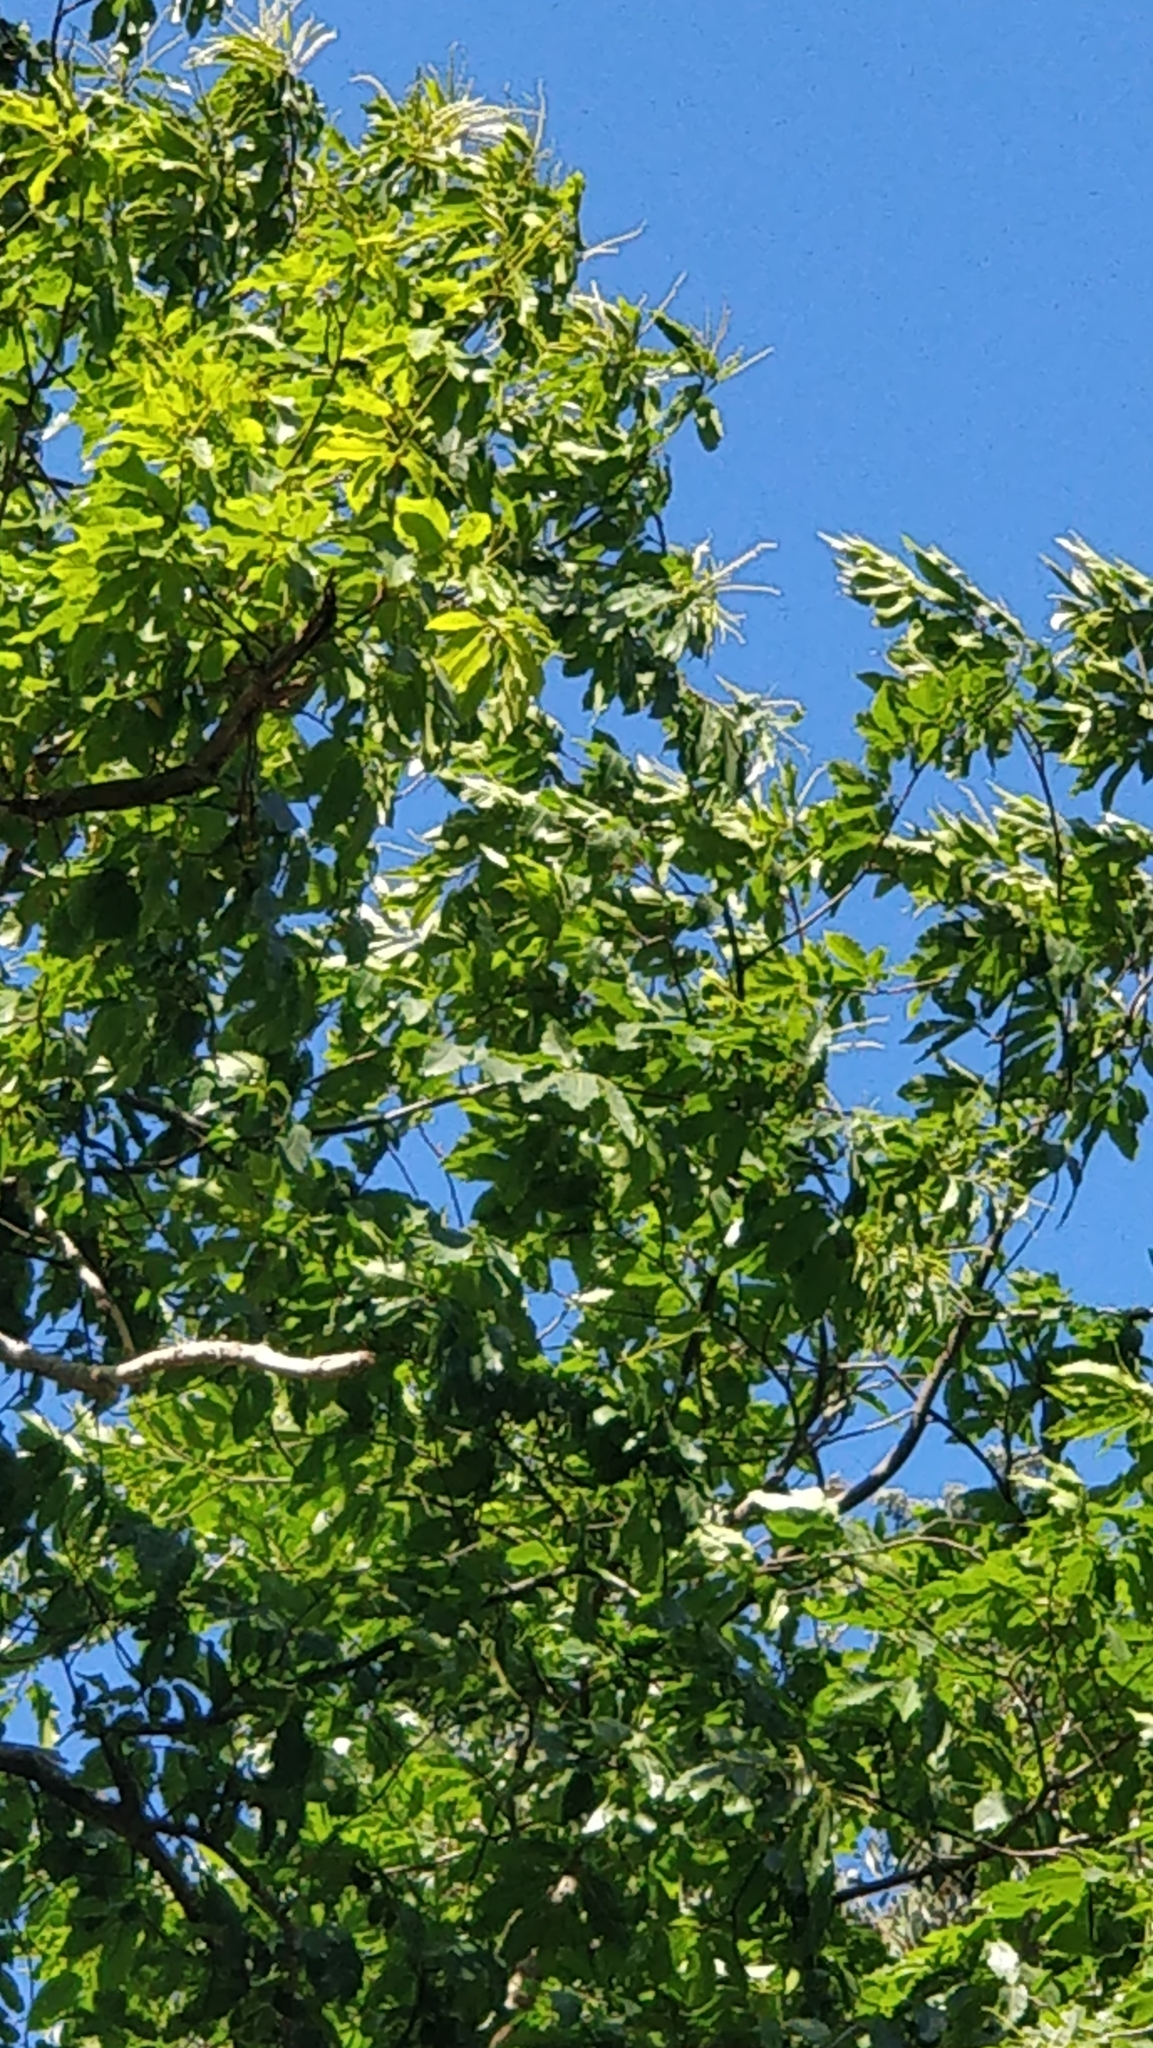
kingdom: Plantae
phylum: Tracheophyta
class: Magnoliopsida
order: Fagales
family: Fagaceae
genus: Castanea
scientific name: Castanea sativa
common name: Sweet chestnut
